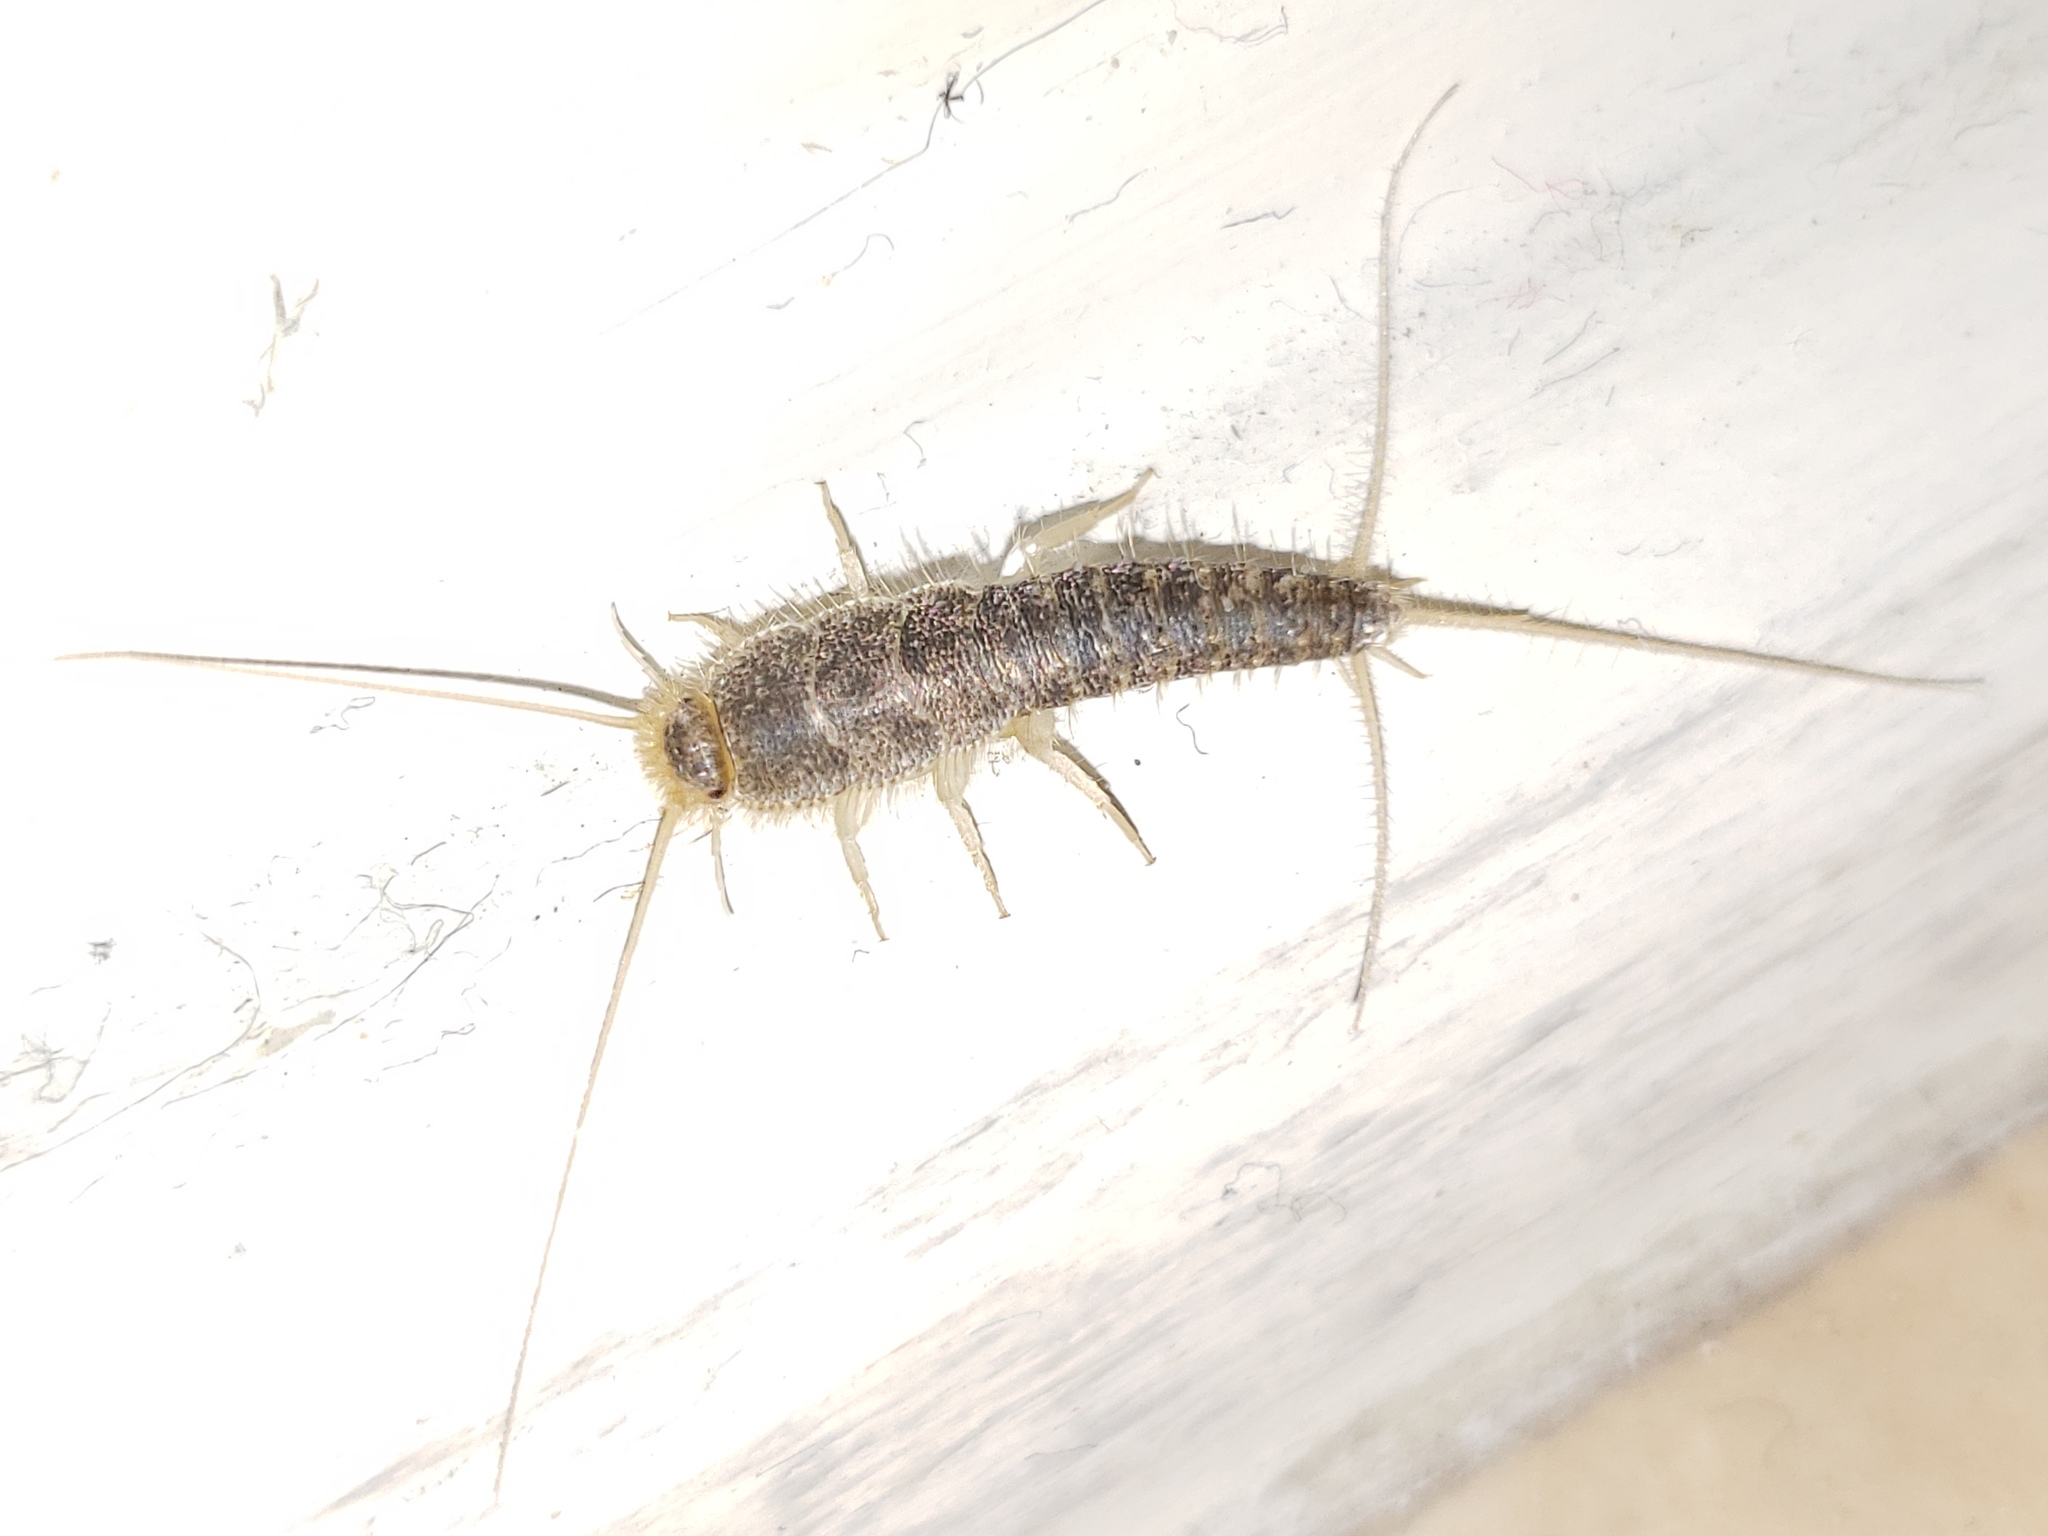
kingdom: Animalia
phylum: Arthropoda
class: Insecta
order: Zygentoma
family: Lepismatidae
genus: Ctenolepisma
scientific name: Ctenolepisma longicaudatum
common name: Silverfish
